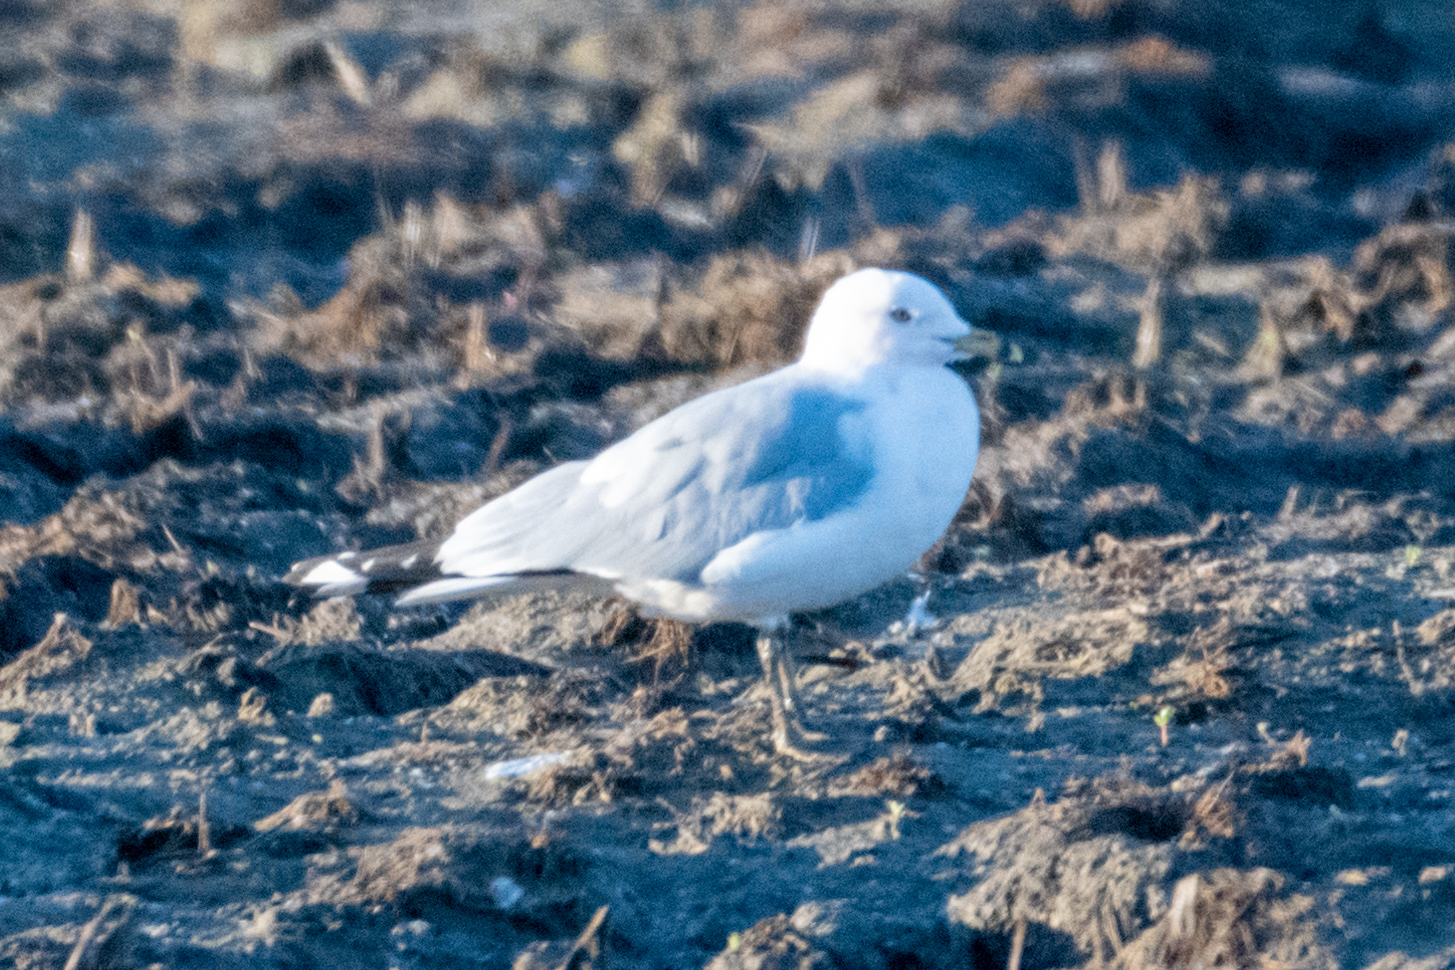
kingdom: Animalia
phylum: Chordata
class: Aves
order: Charadriiformes
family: Laridae
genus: Larus
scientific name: Larus delawarensis
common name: Ring-billed gull
